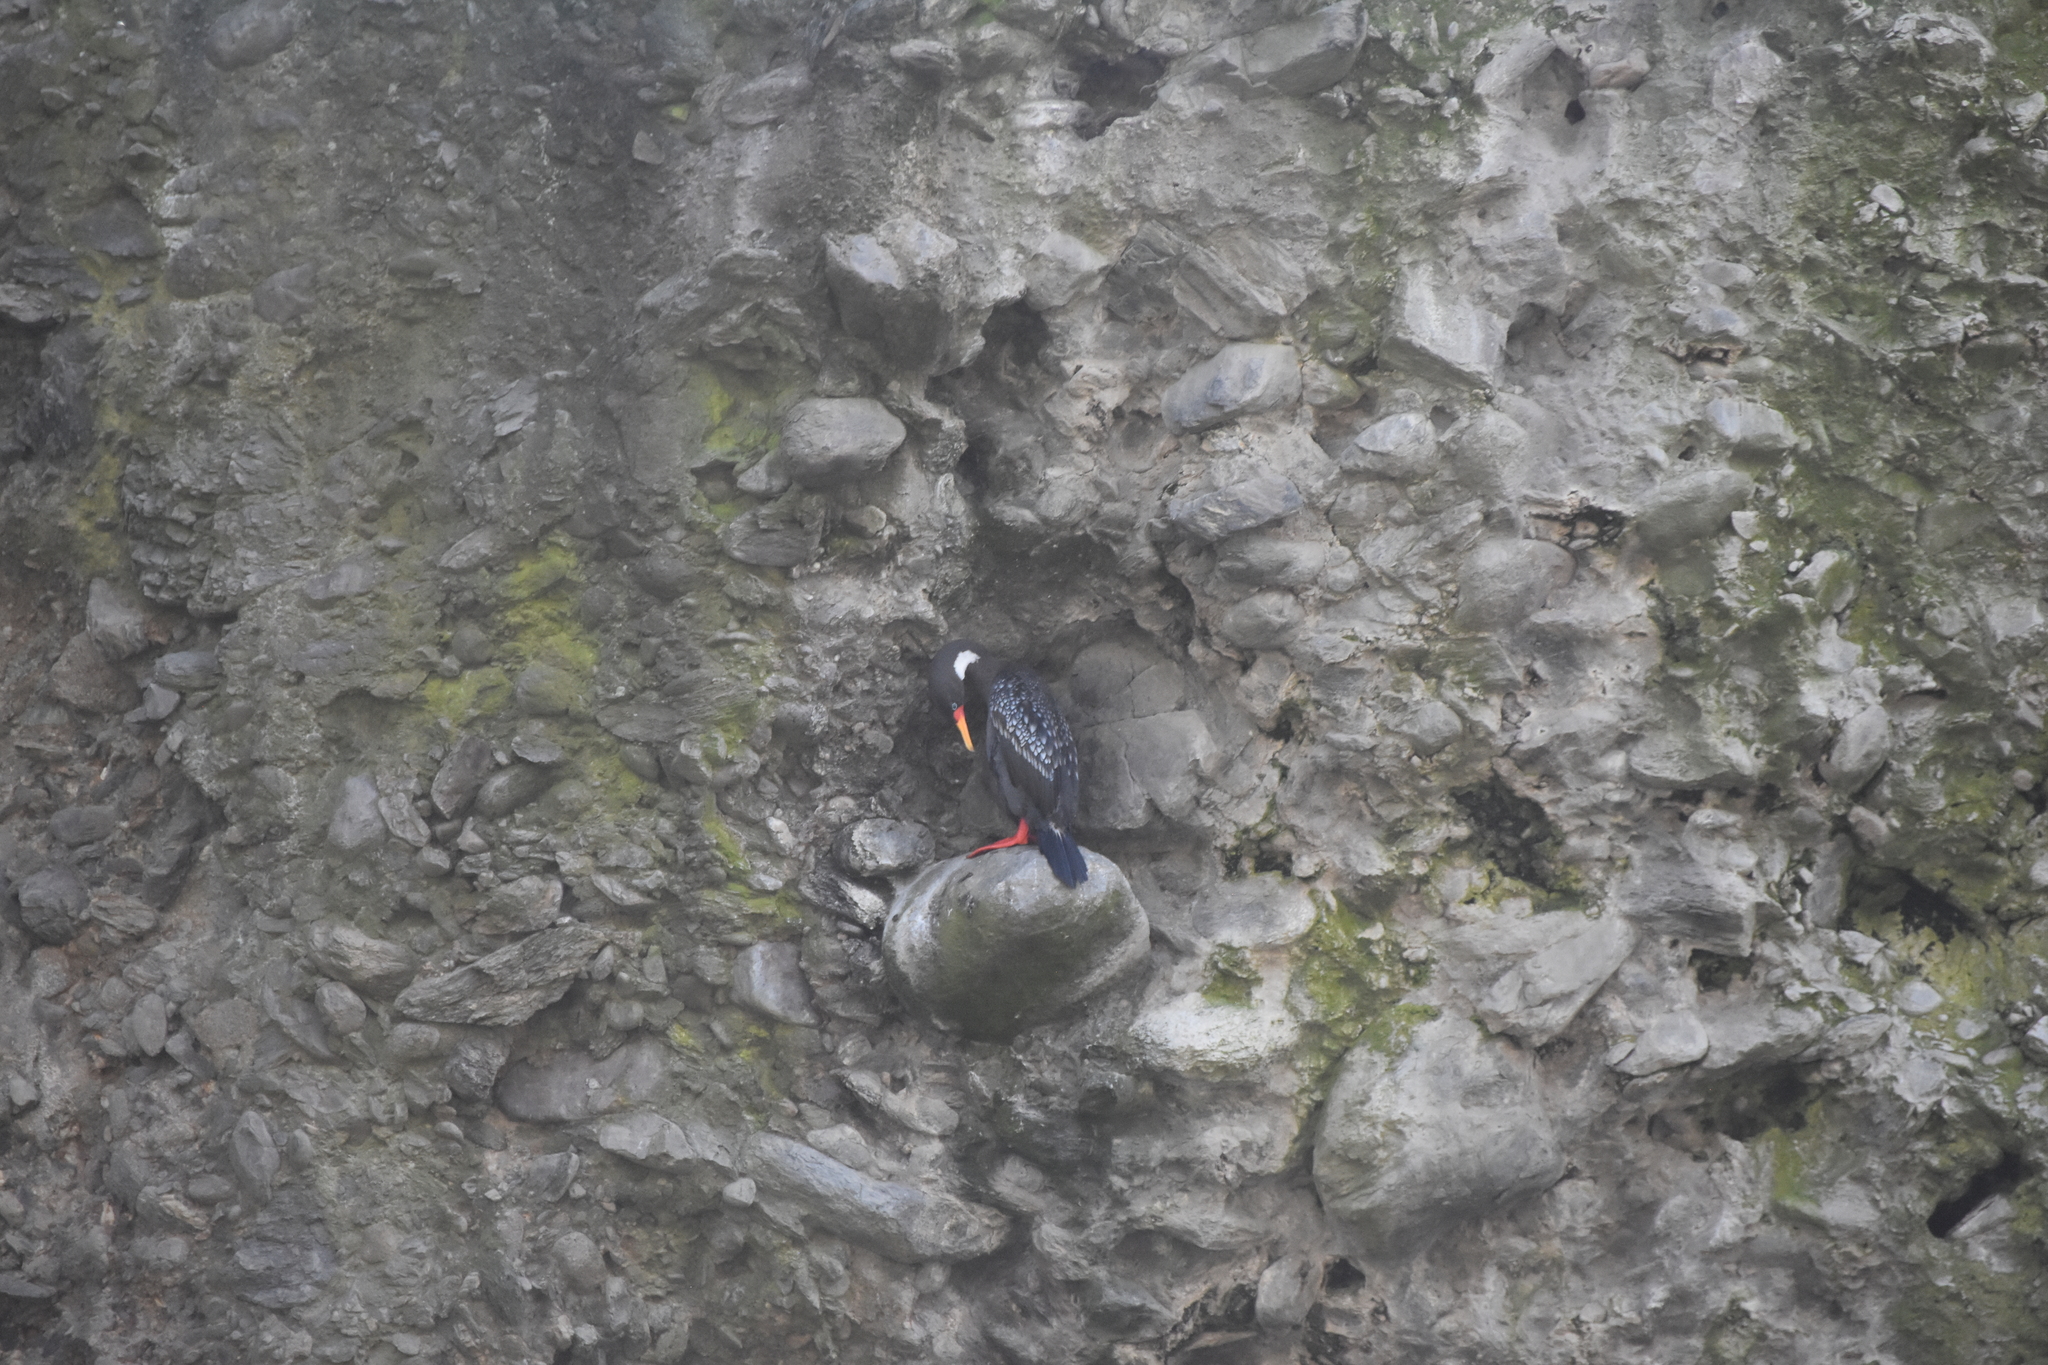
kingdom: Animalia
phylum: Chordata
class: Aves
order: Suliformes
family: Phalacrocoracidae
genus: Phalacrocorax
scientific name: Phalacrocorax gaimardi
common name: Red-legged cormorant
